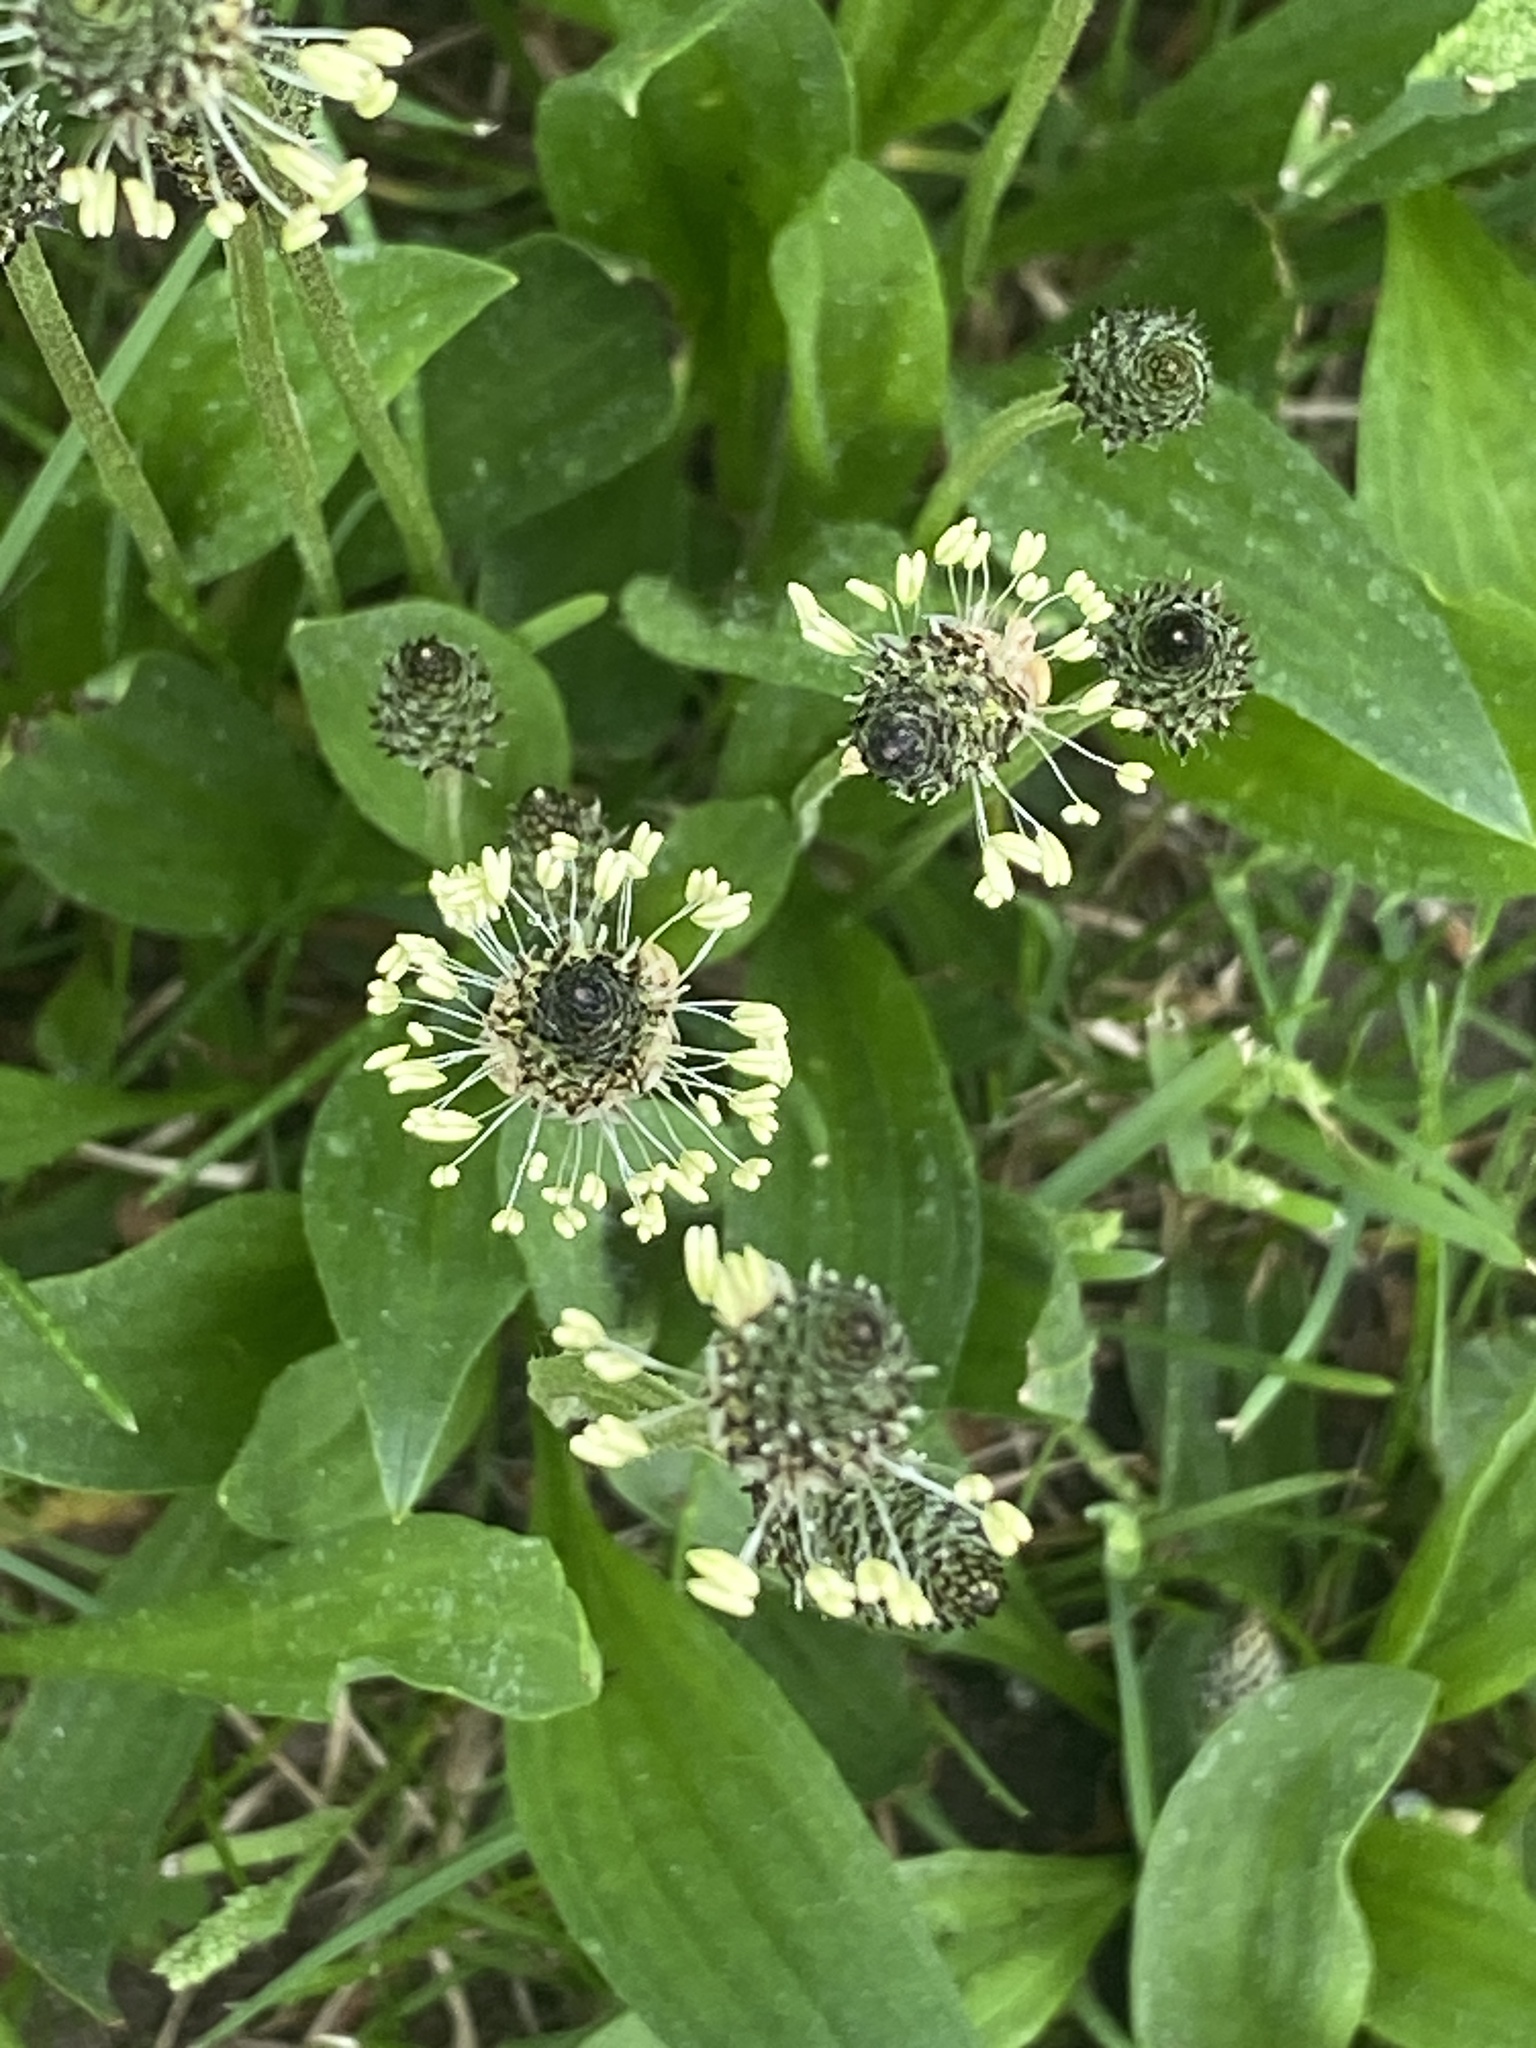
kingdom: Plantae
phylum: Tracheophyta
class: Magnoliopsida
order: Lamiales
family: Plantaginaceae
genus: Plantago
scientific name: Plantago lanceolata
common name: Ribwort plantain
